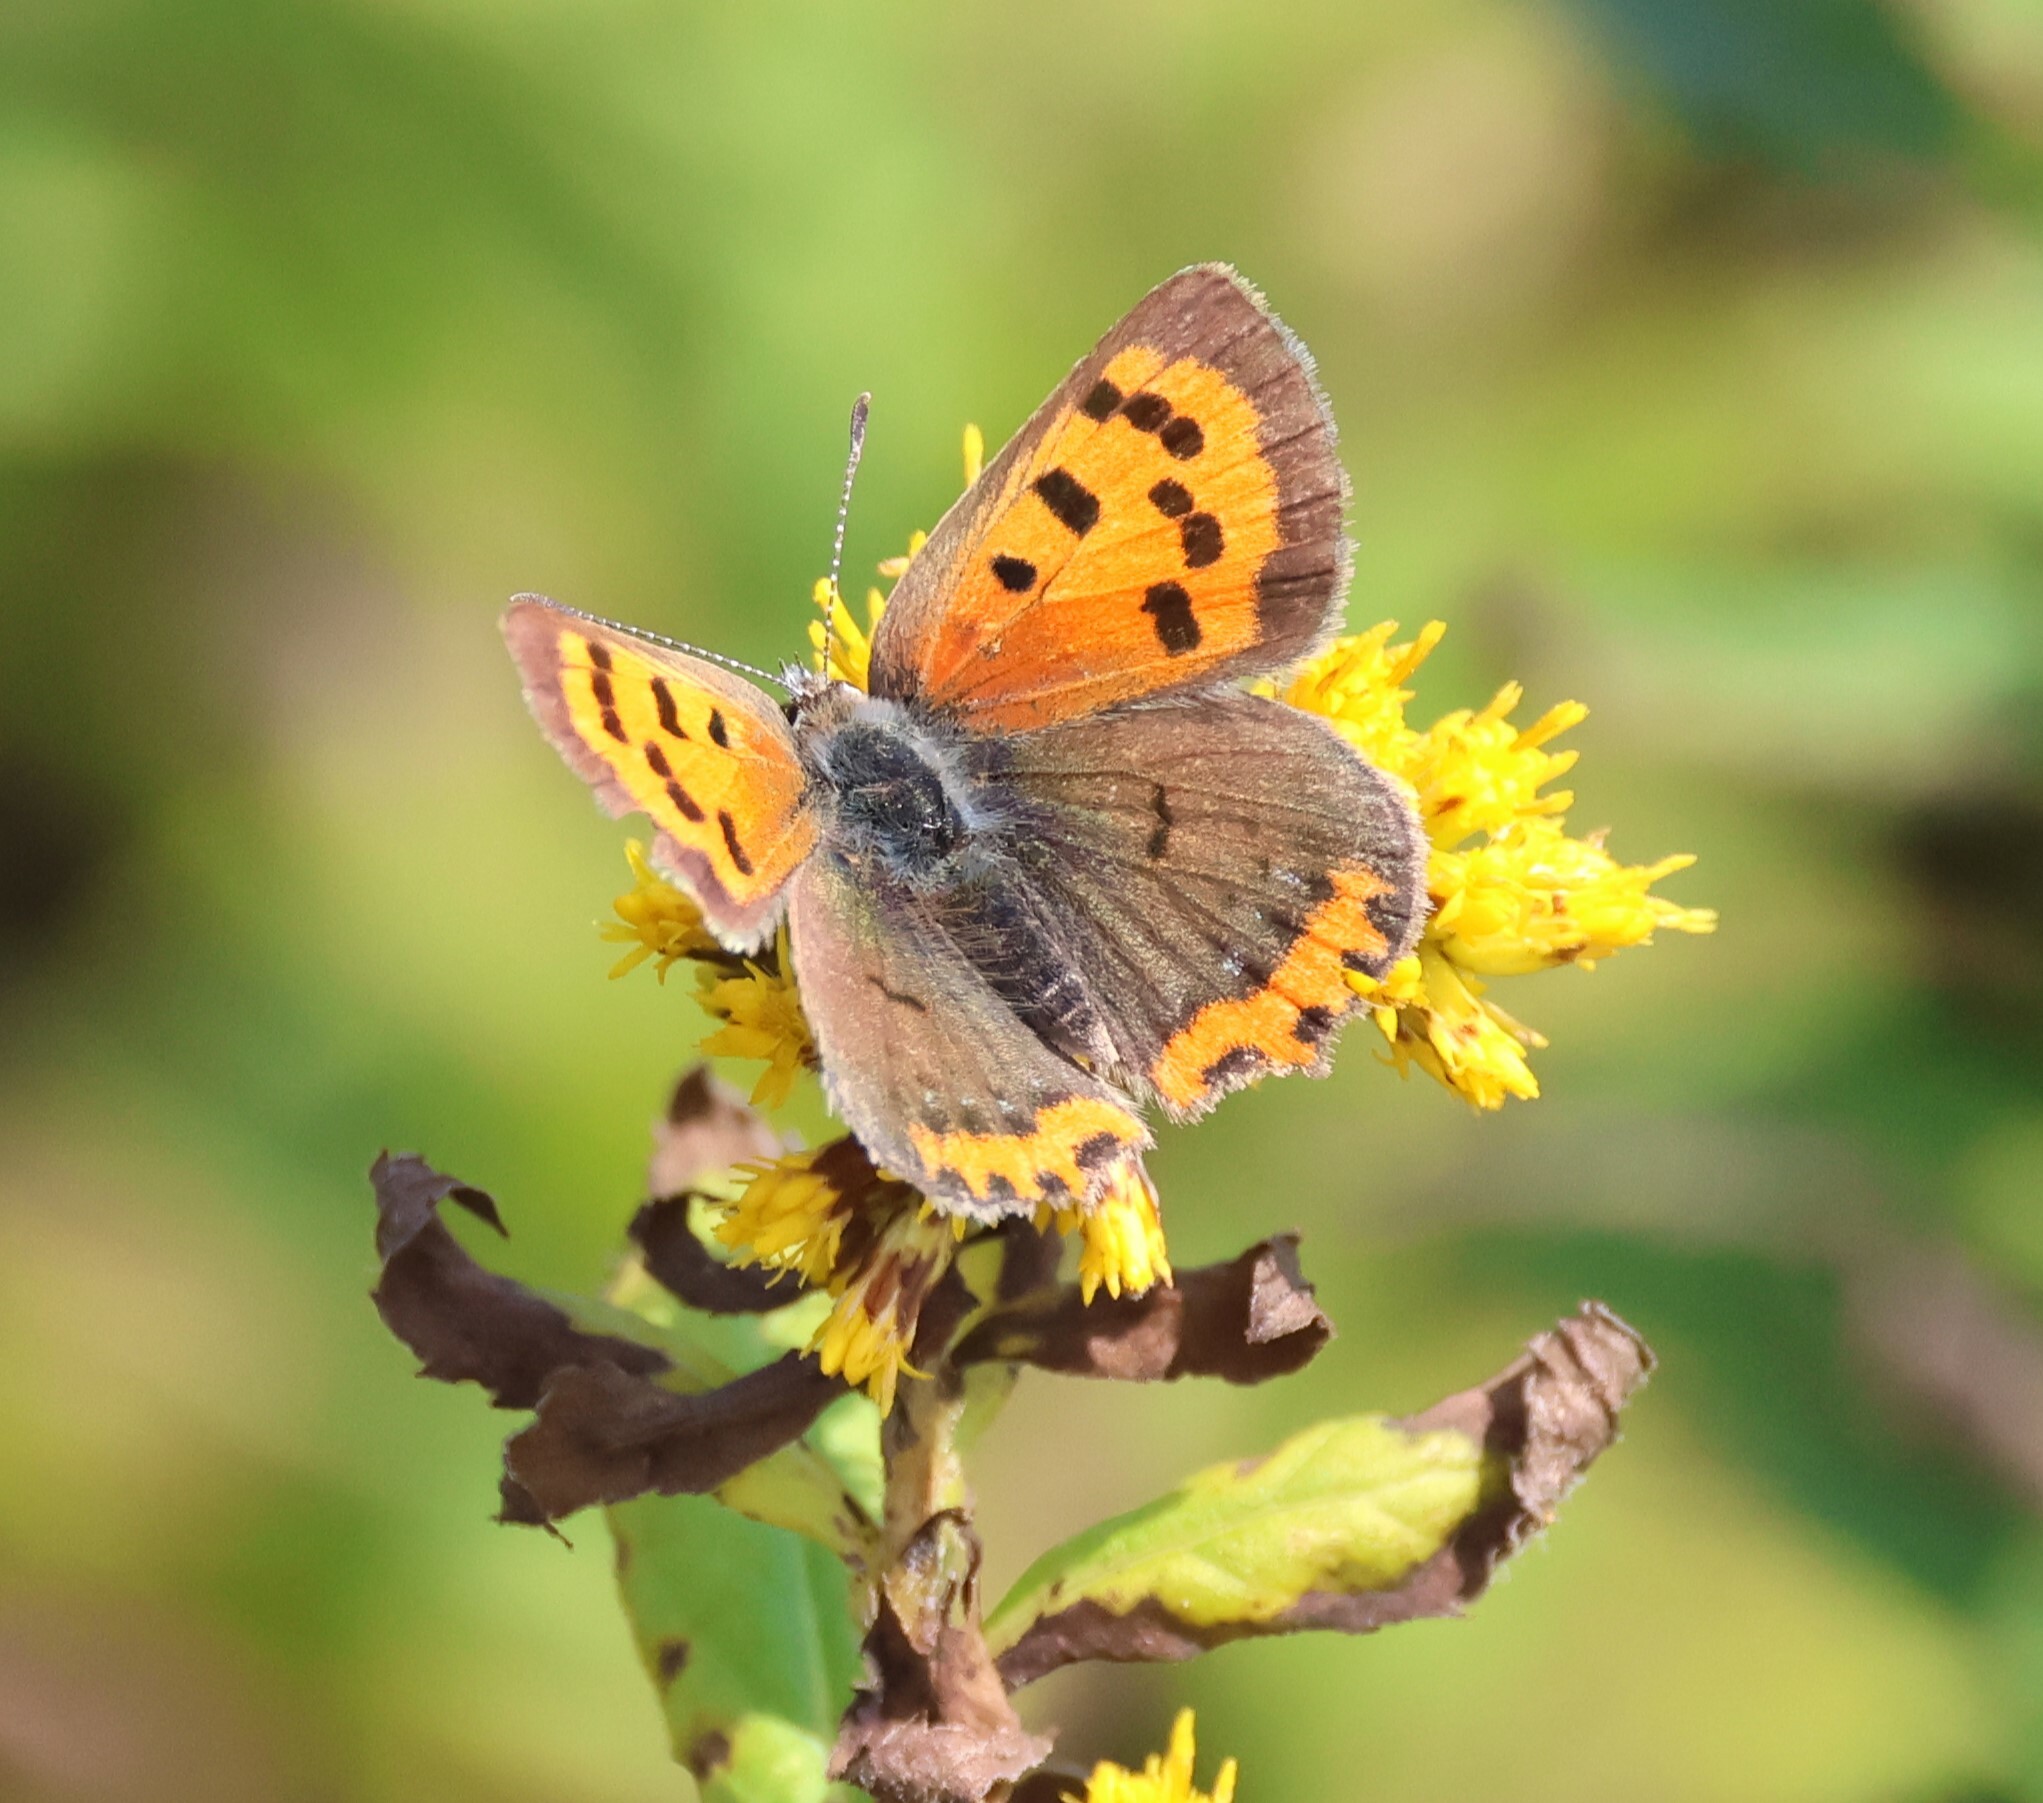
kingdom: Animalia
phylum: Arthropoda
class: Insecta
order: Lepidoptera
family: Lycaenidae
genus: Lycaena
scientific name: Lycaena hypophlaeas
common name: American copper
